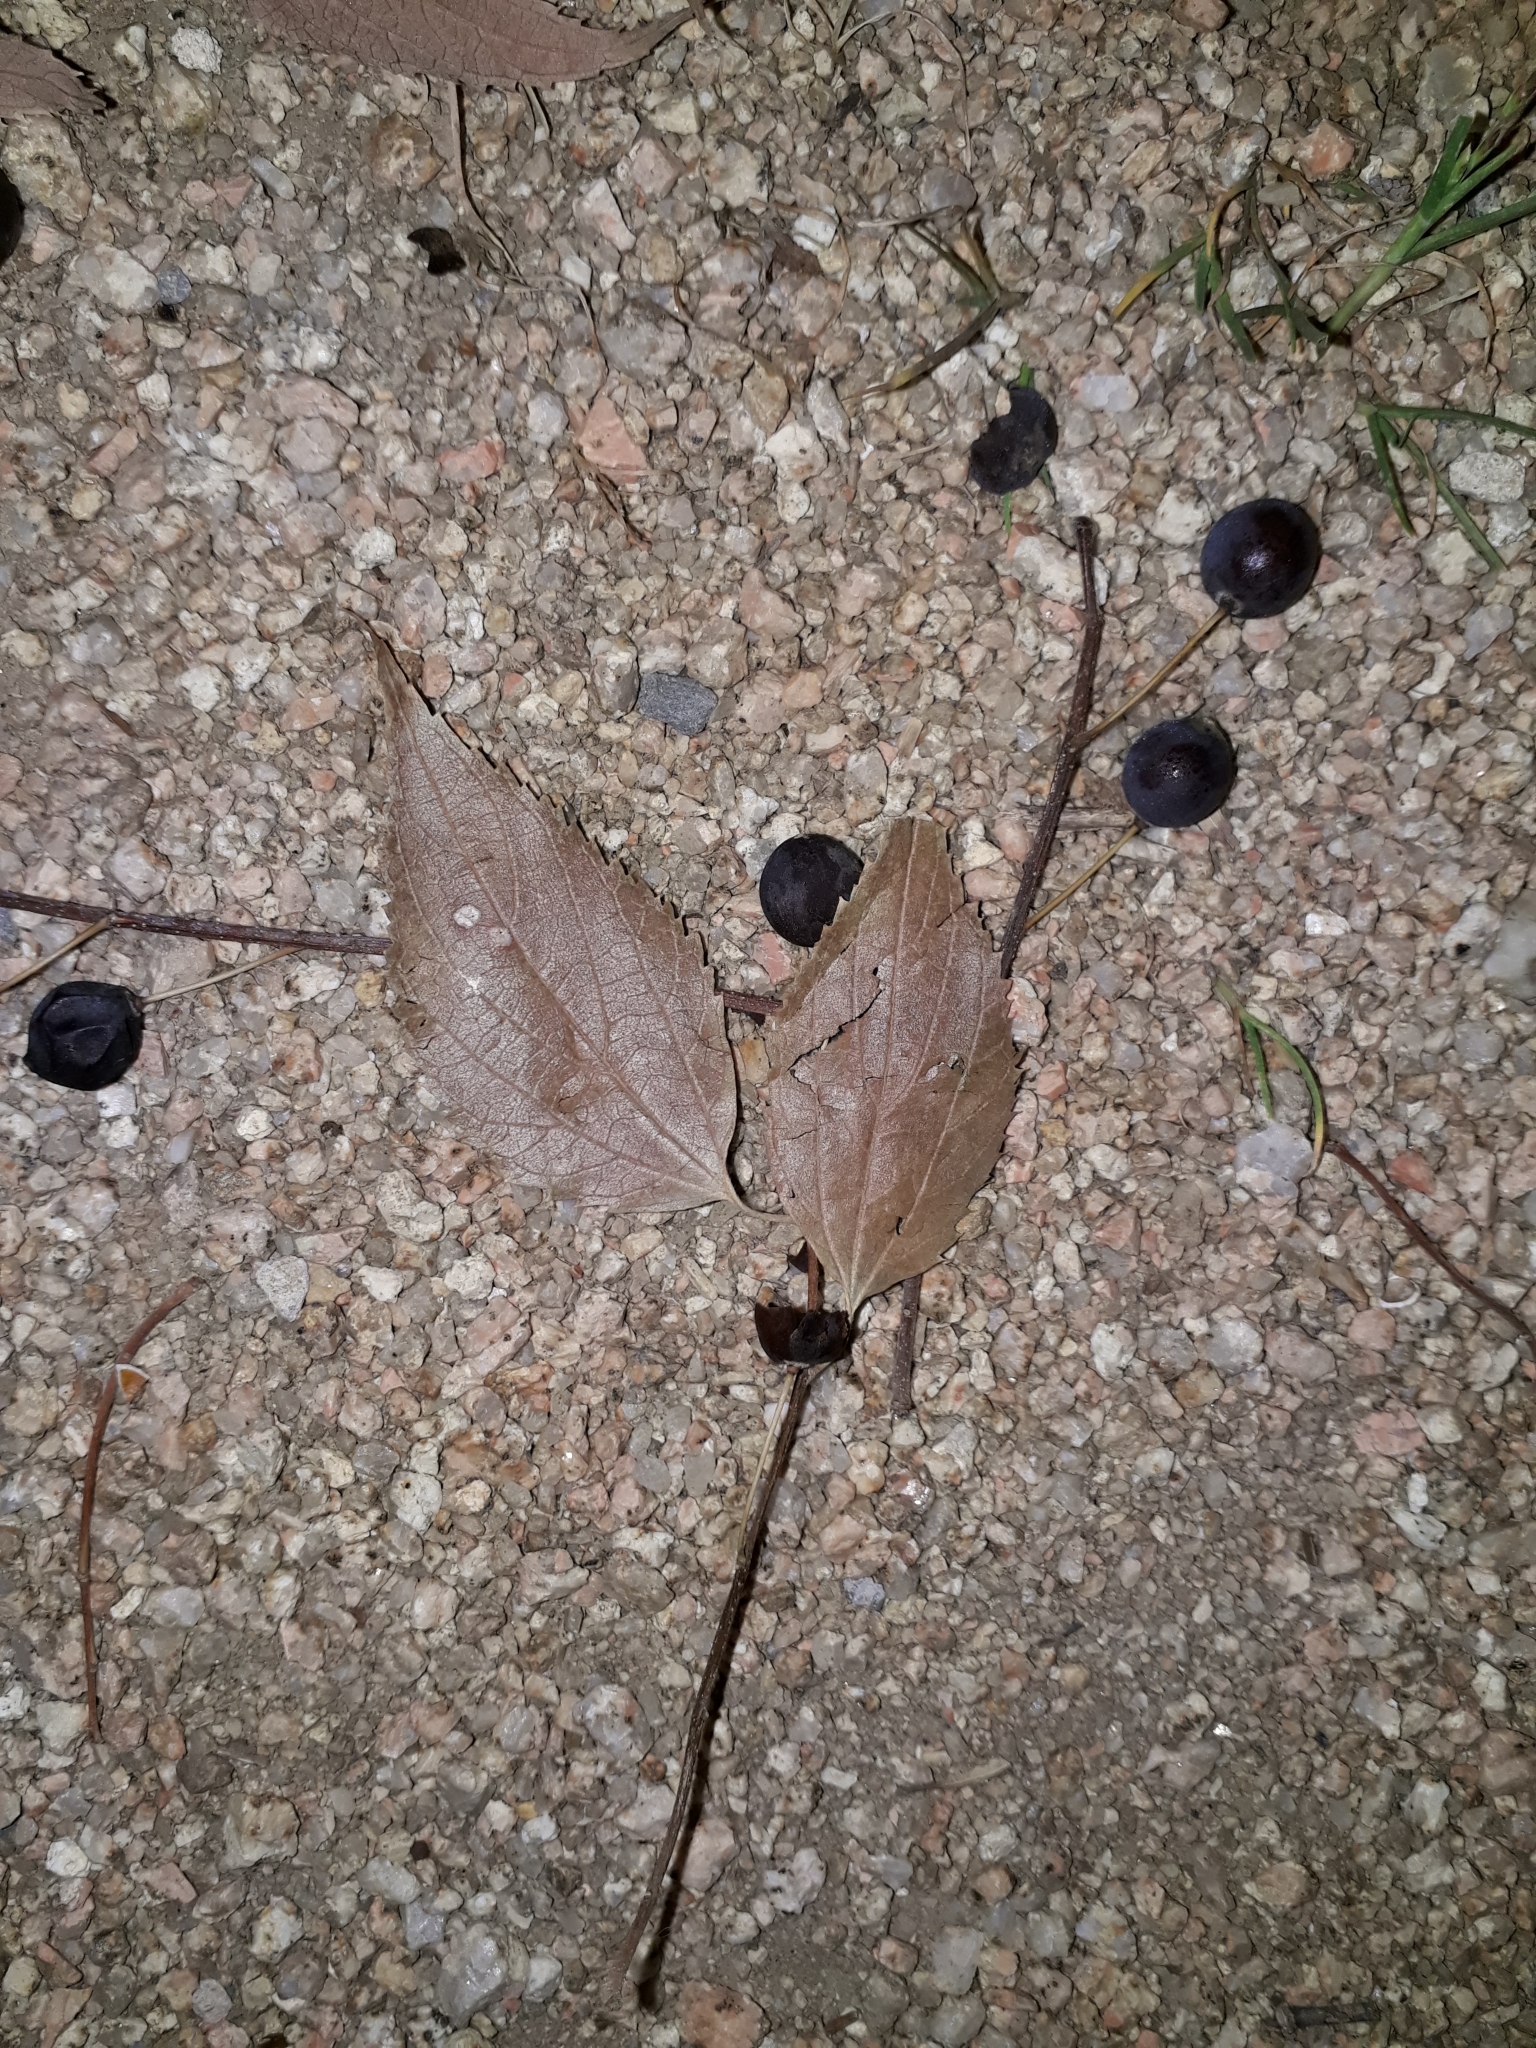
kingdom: Plantae
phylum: Tracheophyta
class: Magnoliopsida
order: Rosales
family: Cannabaceae
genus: Celtis
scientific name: Celtis australis
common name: European hackberry
